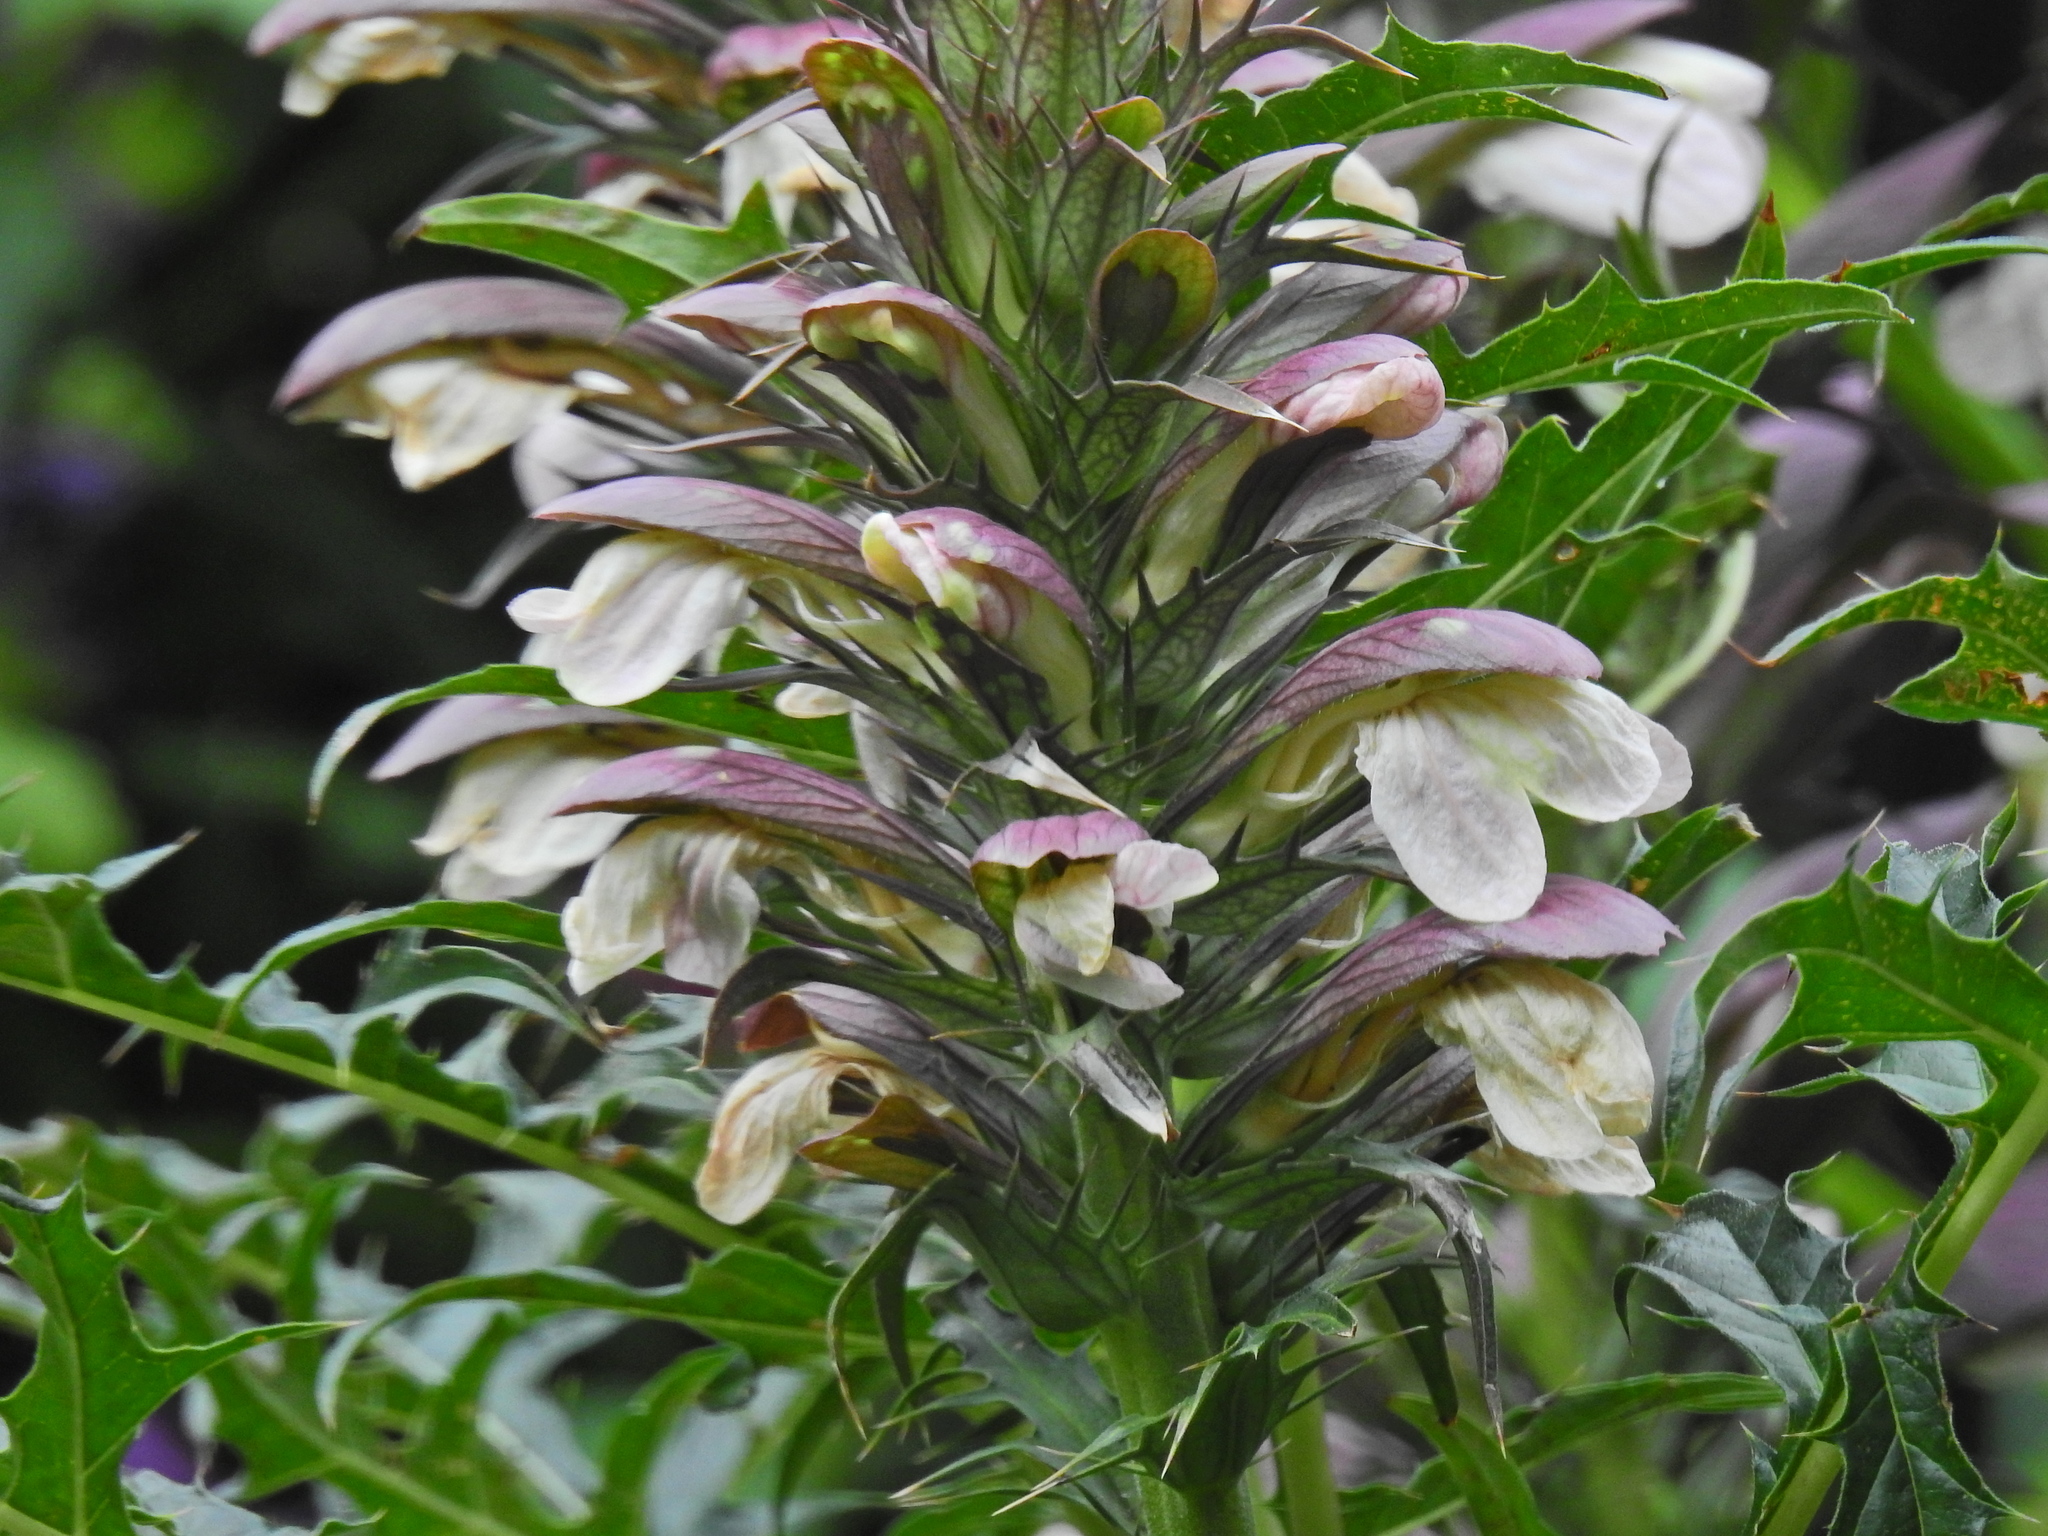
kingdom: Plantae
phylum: Tracheophyta
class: Magnoliopsida
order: Lamiales
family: Acanthaceae
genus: Acanthus
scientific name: Acanthus spinosus
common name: Spiny bear's-breech
